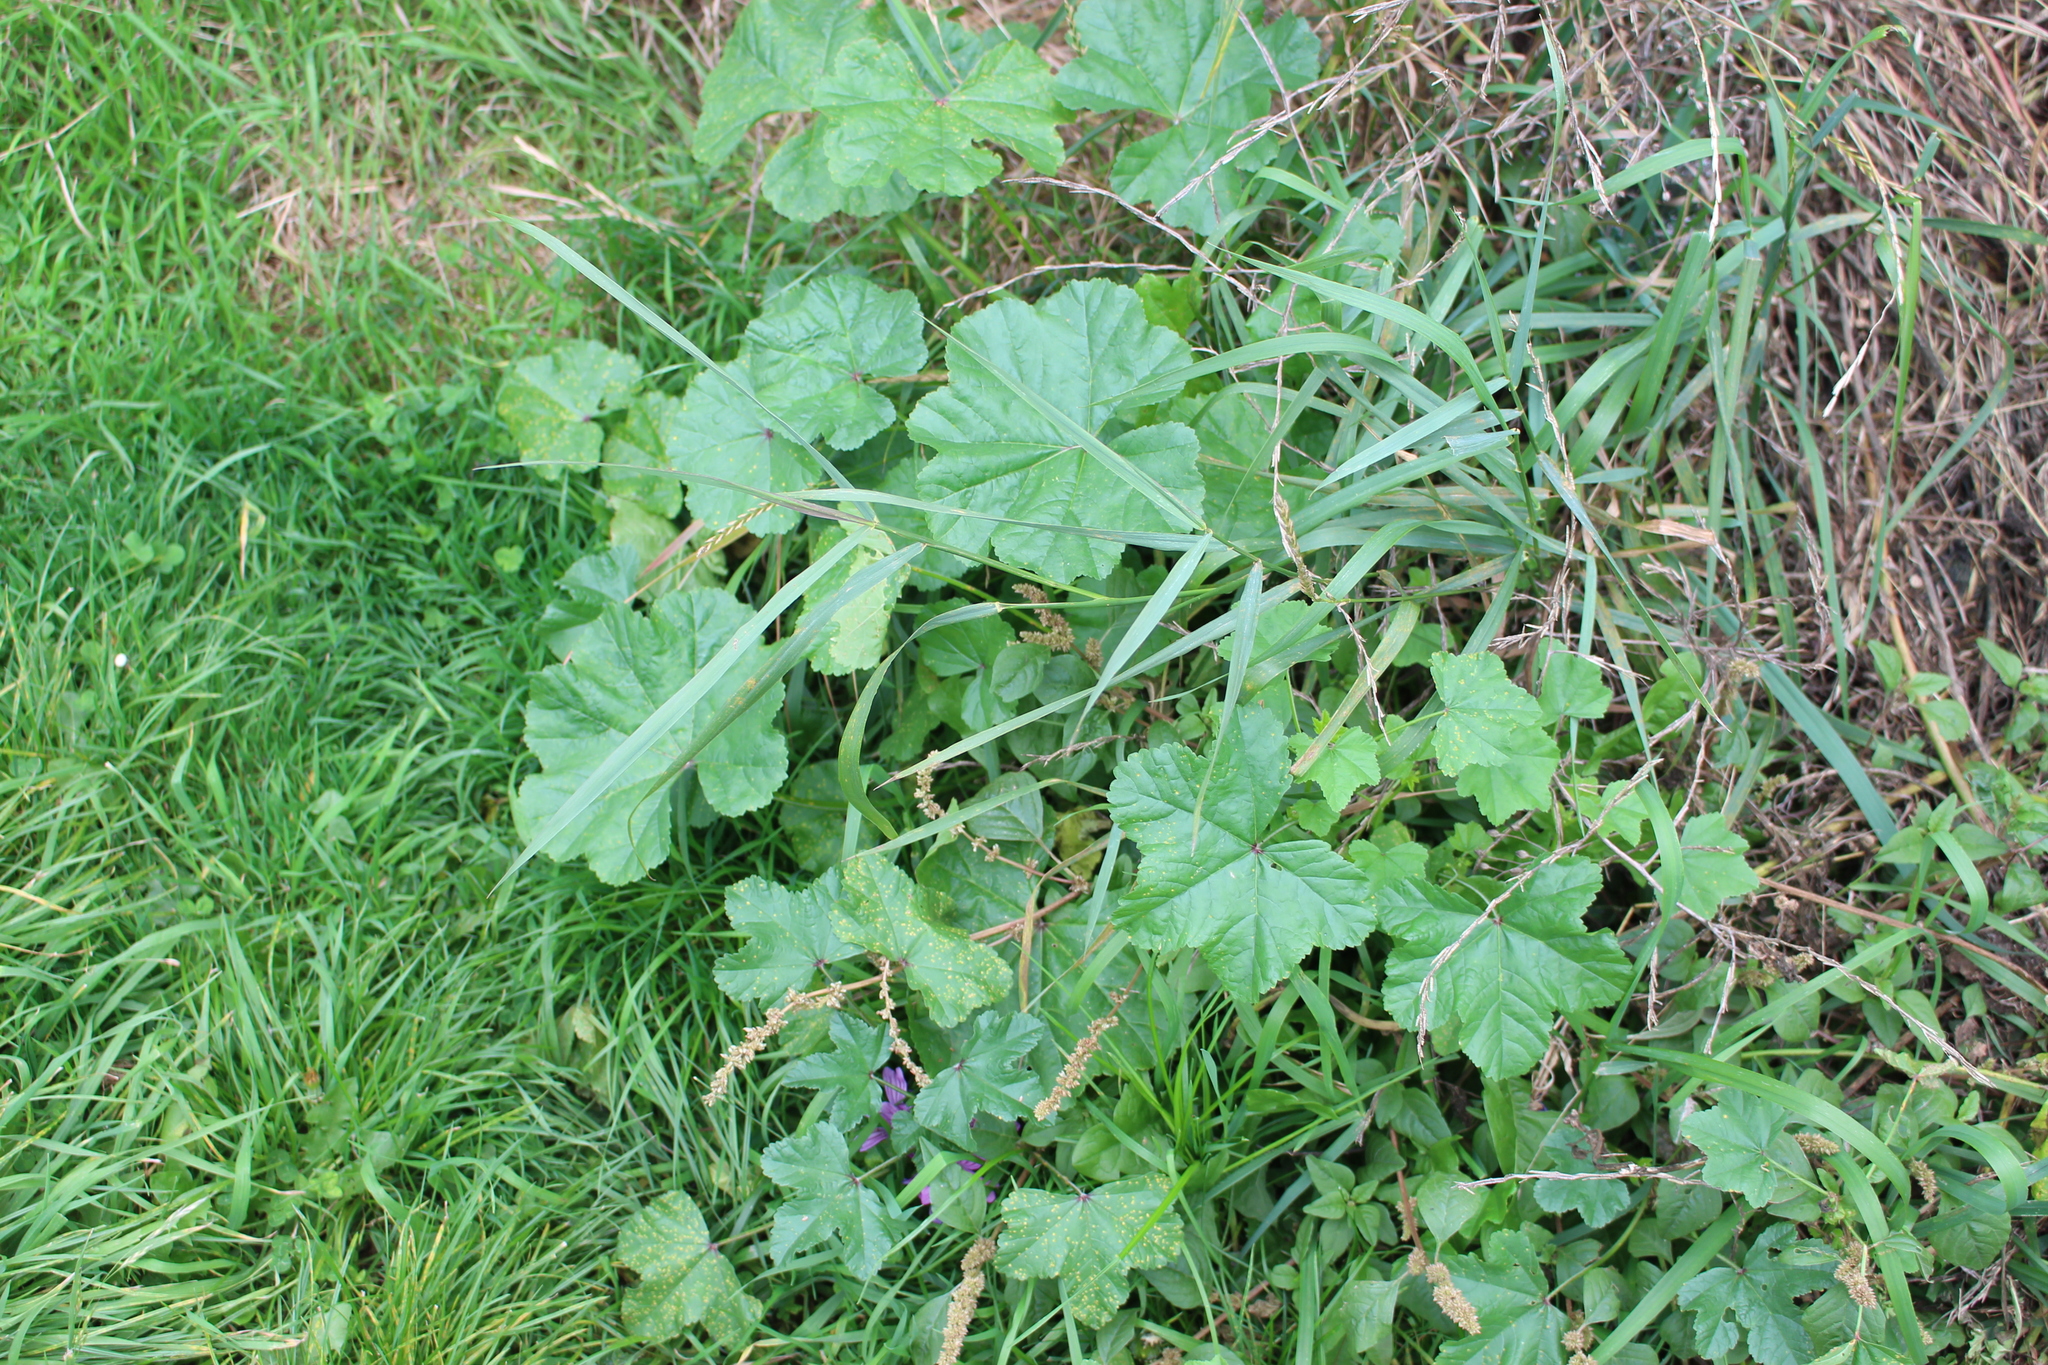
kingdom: Plantae
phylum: Tracheophyta
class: Magnoliopsida
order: Malvales
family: Malvaceae
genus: Malva
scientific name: Malva sylvestris
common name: Common mallow
